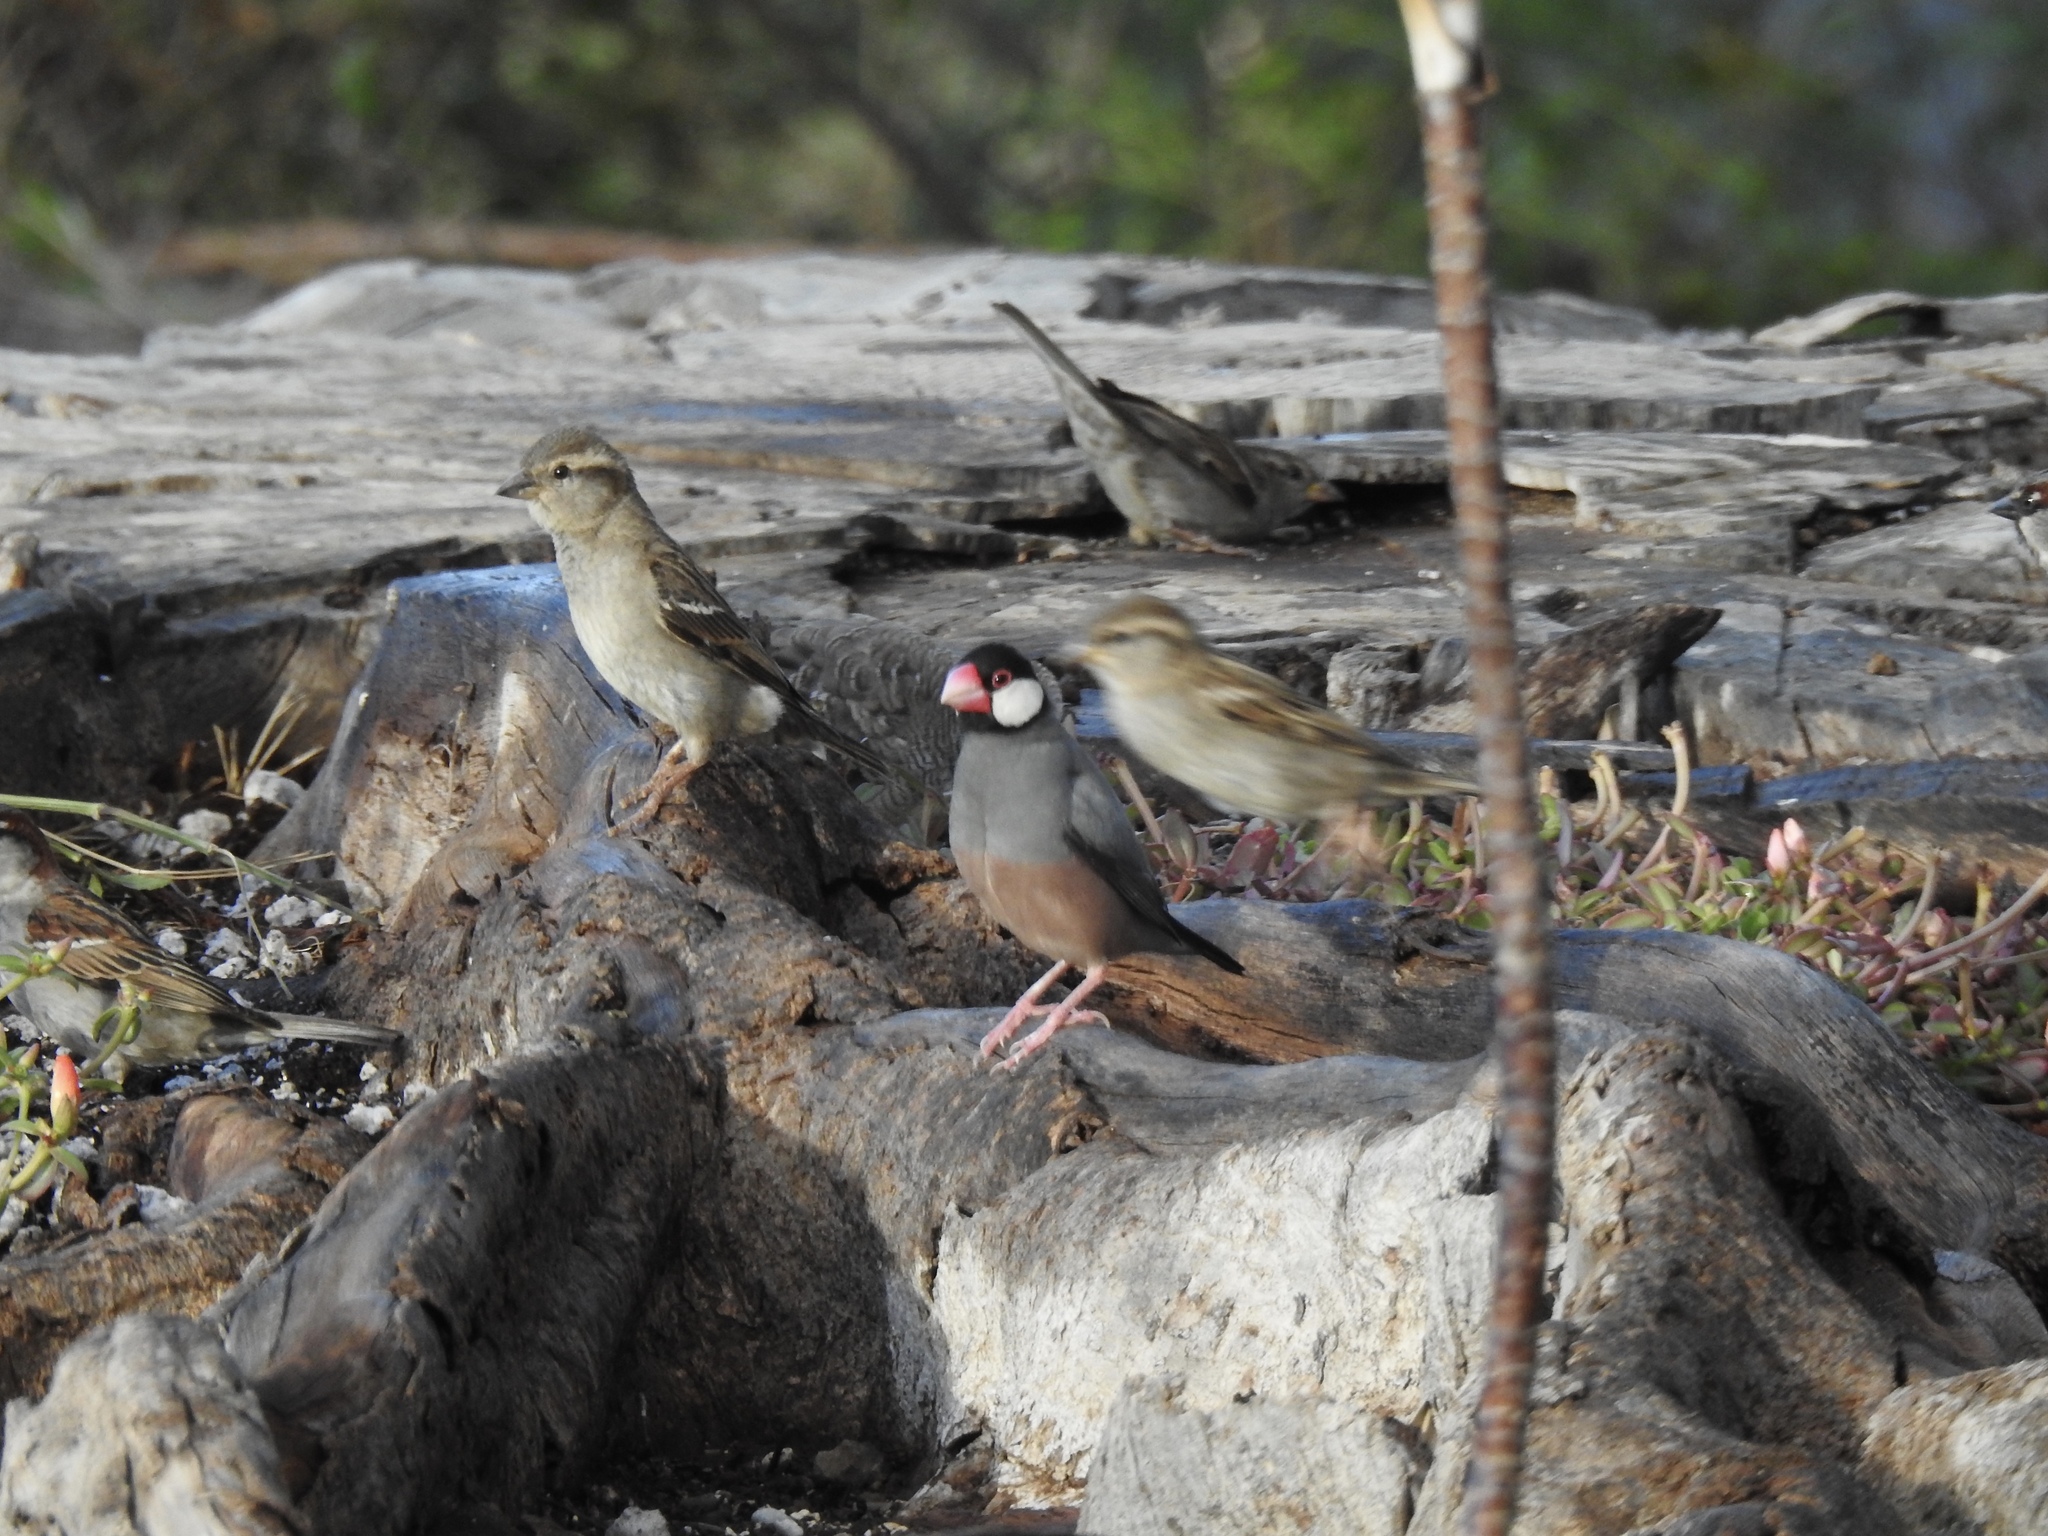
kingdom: Animalia
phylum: Chordata
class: Aves
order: Passeriformes
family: Estrildidae
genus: Lonchura
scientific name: Lonchura oryzivora
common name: Java sparrow
